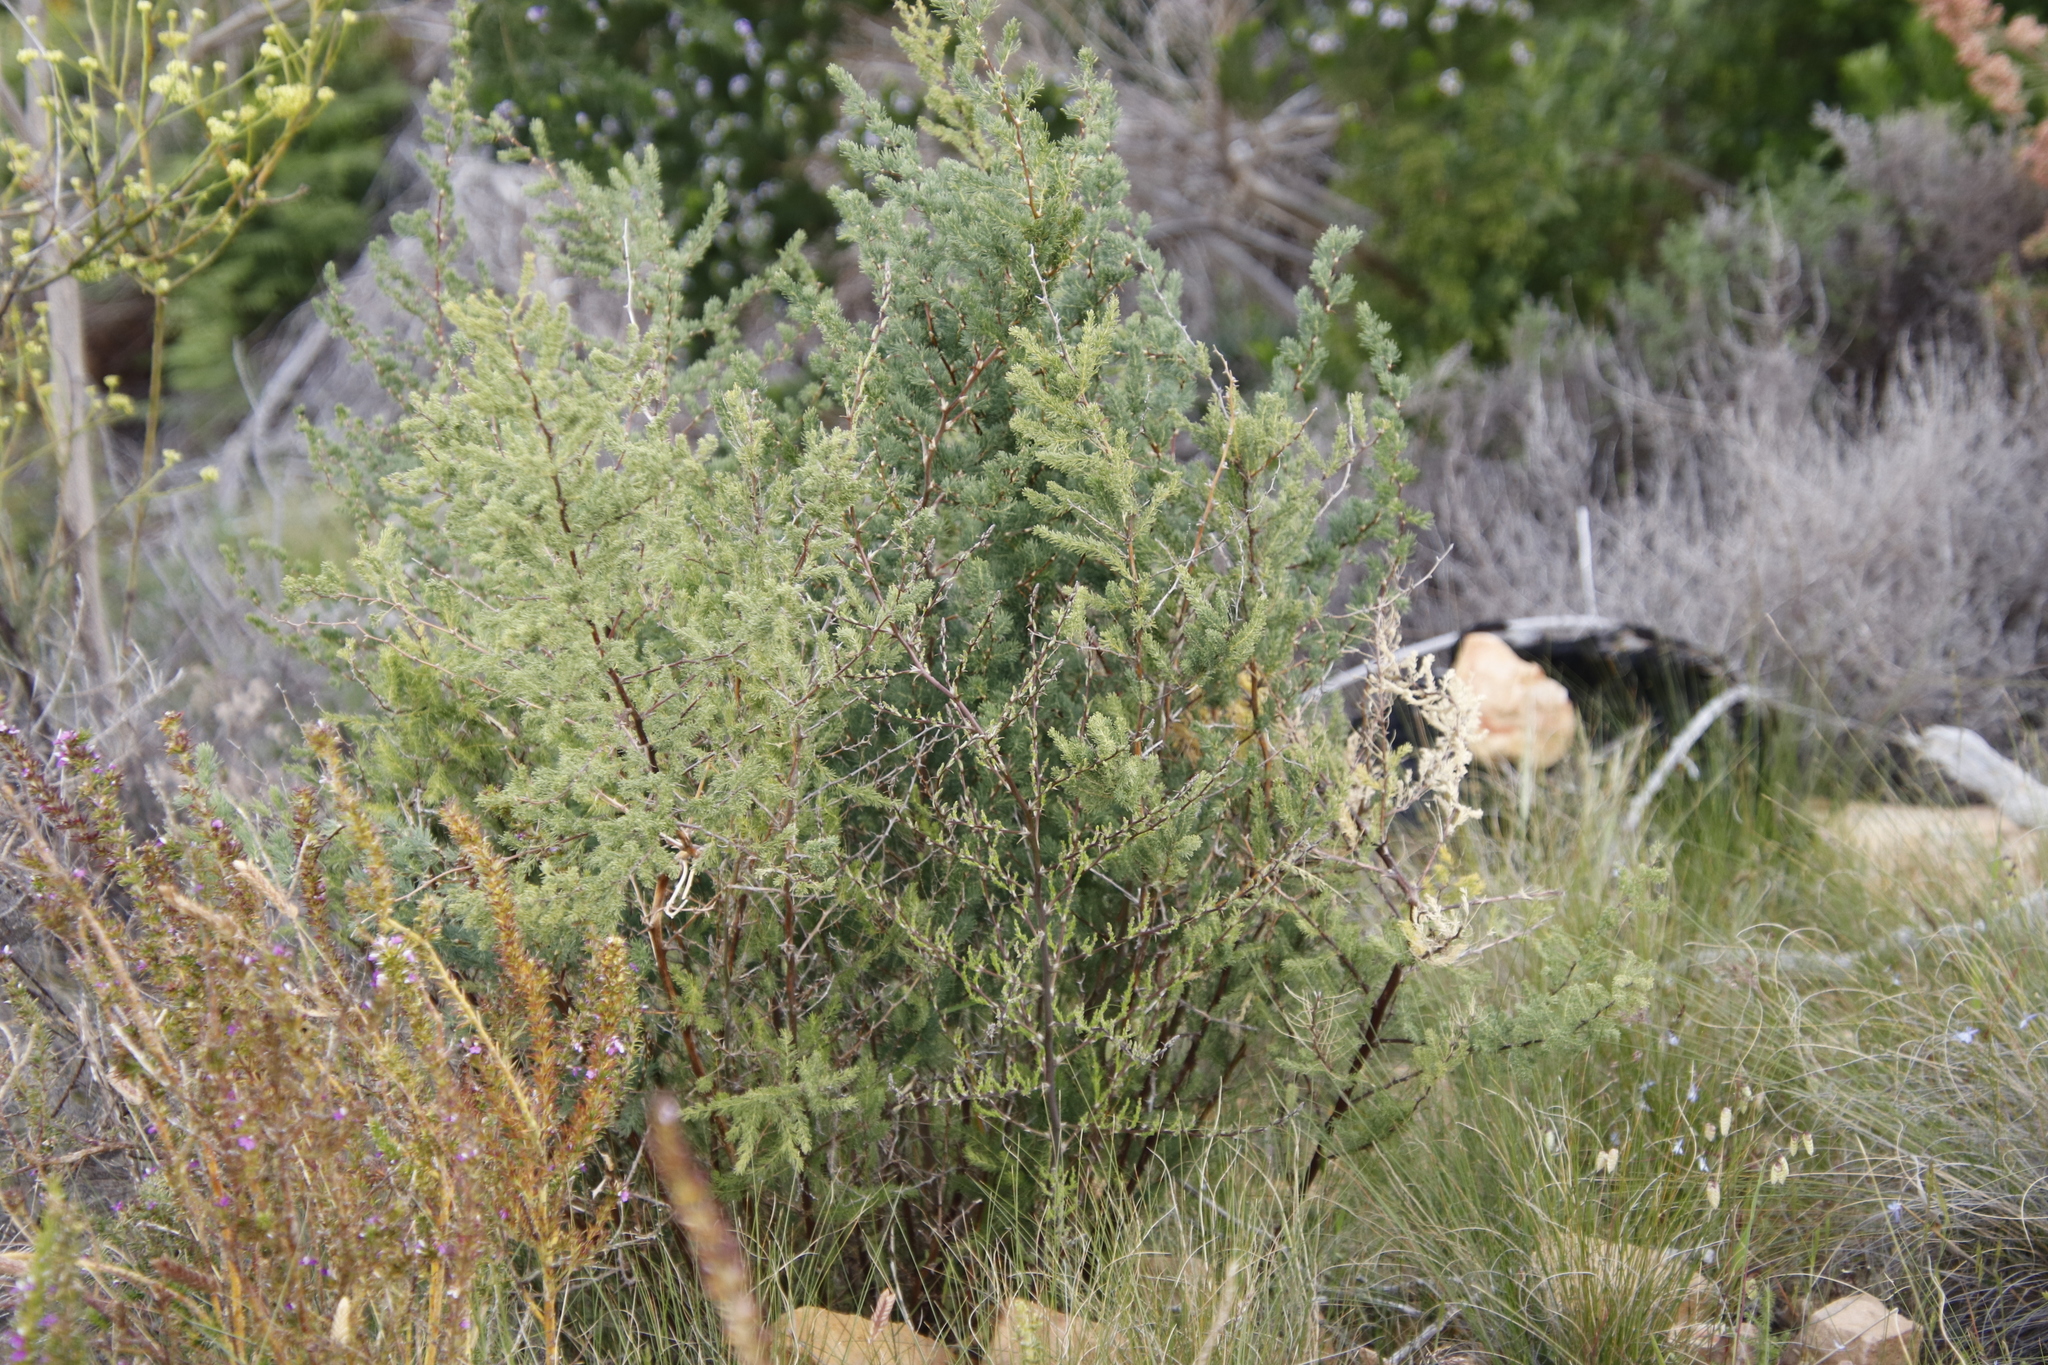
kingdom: Plantae
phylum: Tracheophyta
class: Liliopsida
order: Asparagales
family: Asparagaceae
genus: Asparagus
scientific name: Asparagus rubicundus
